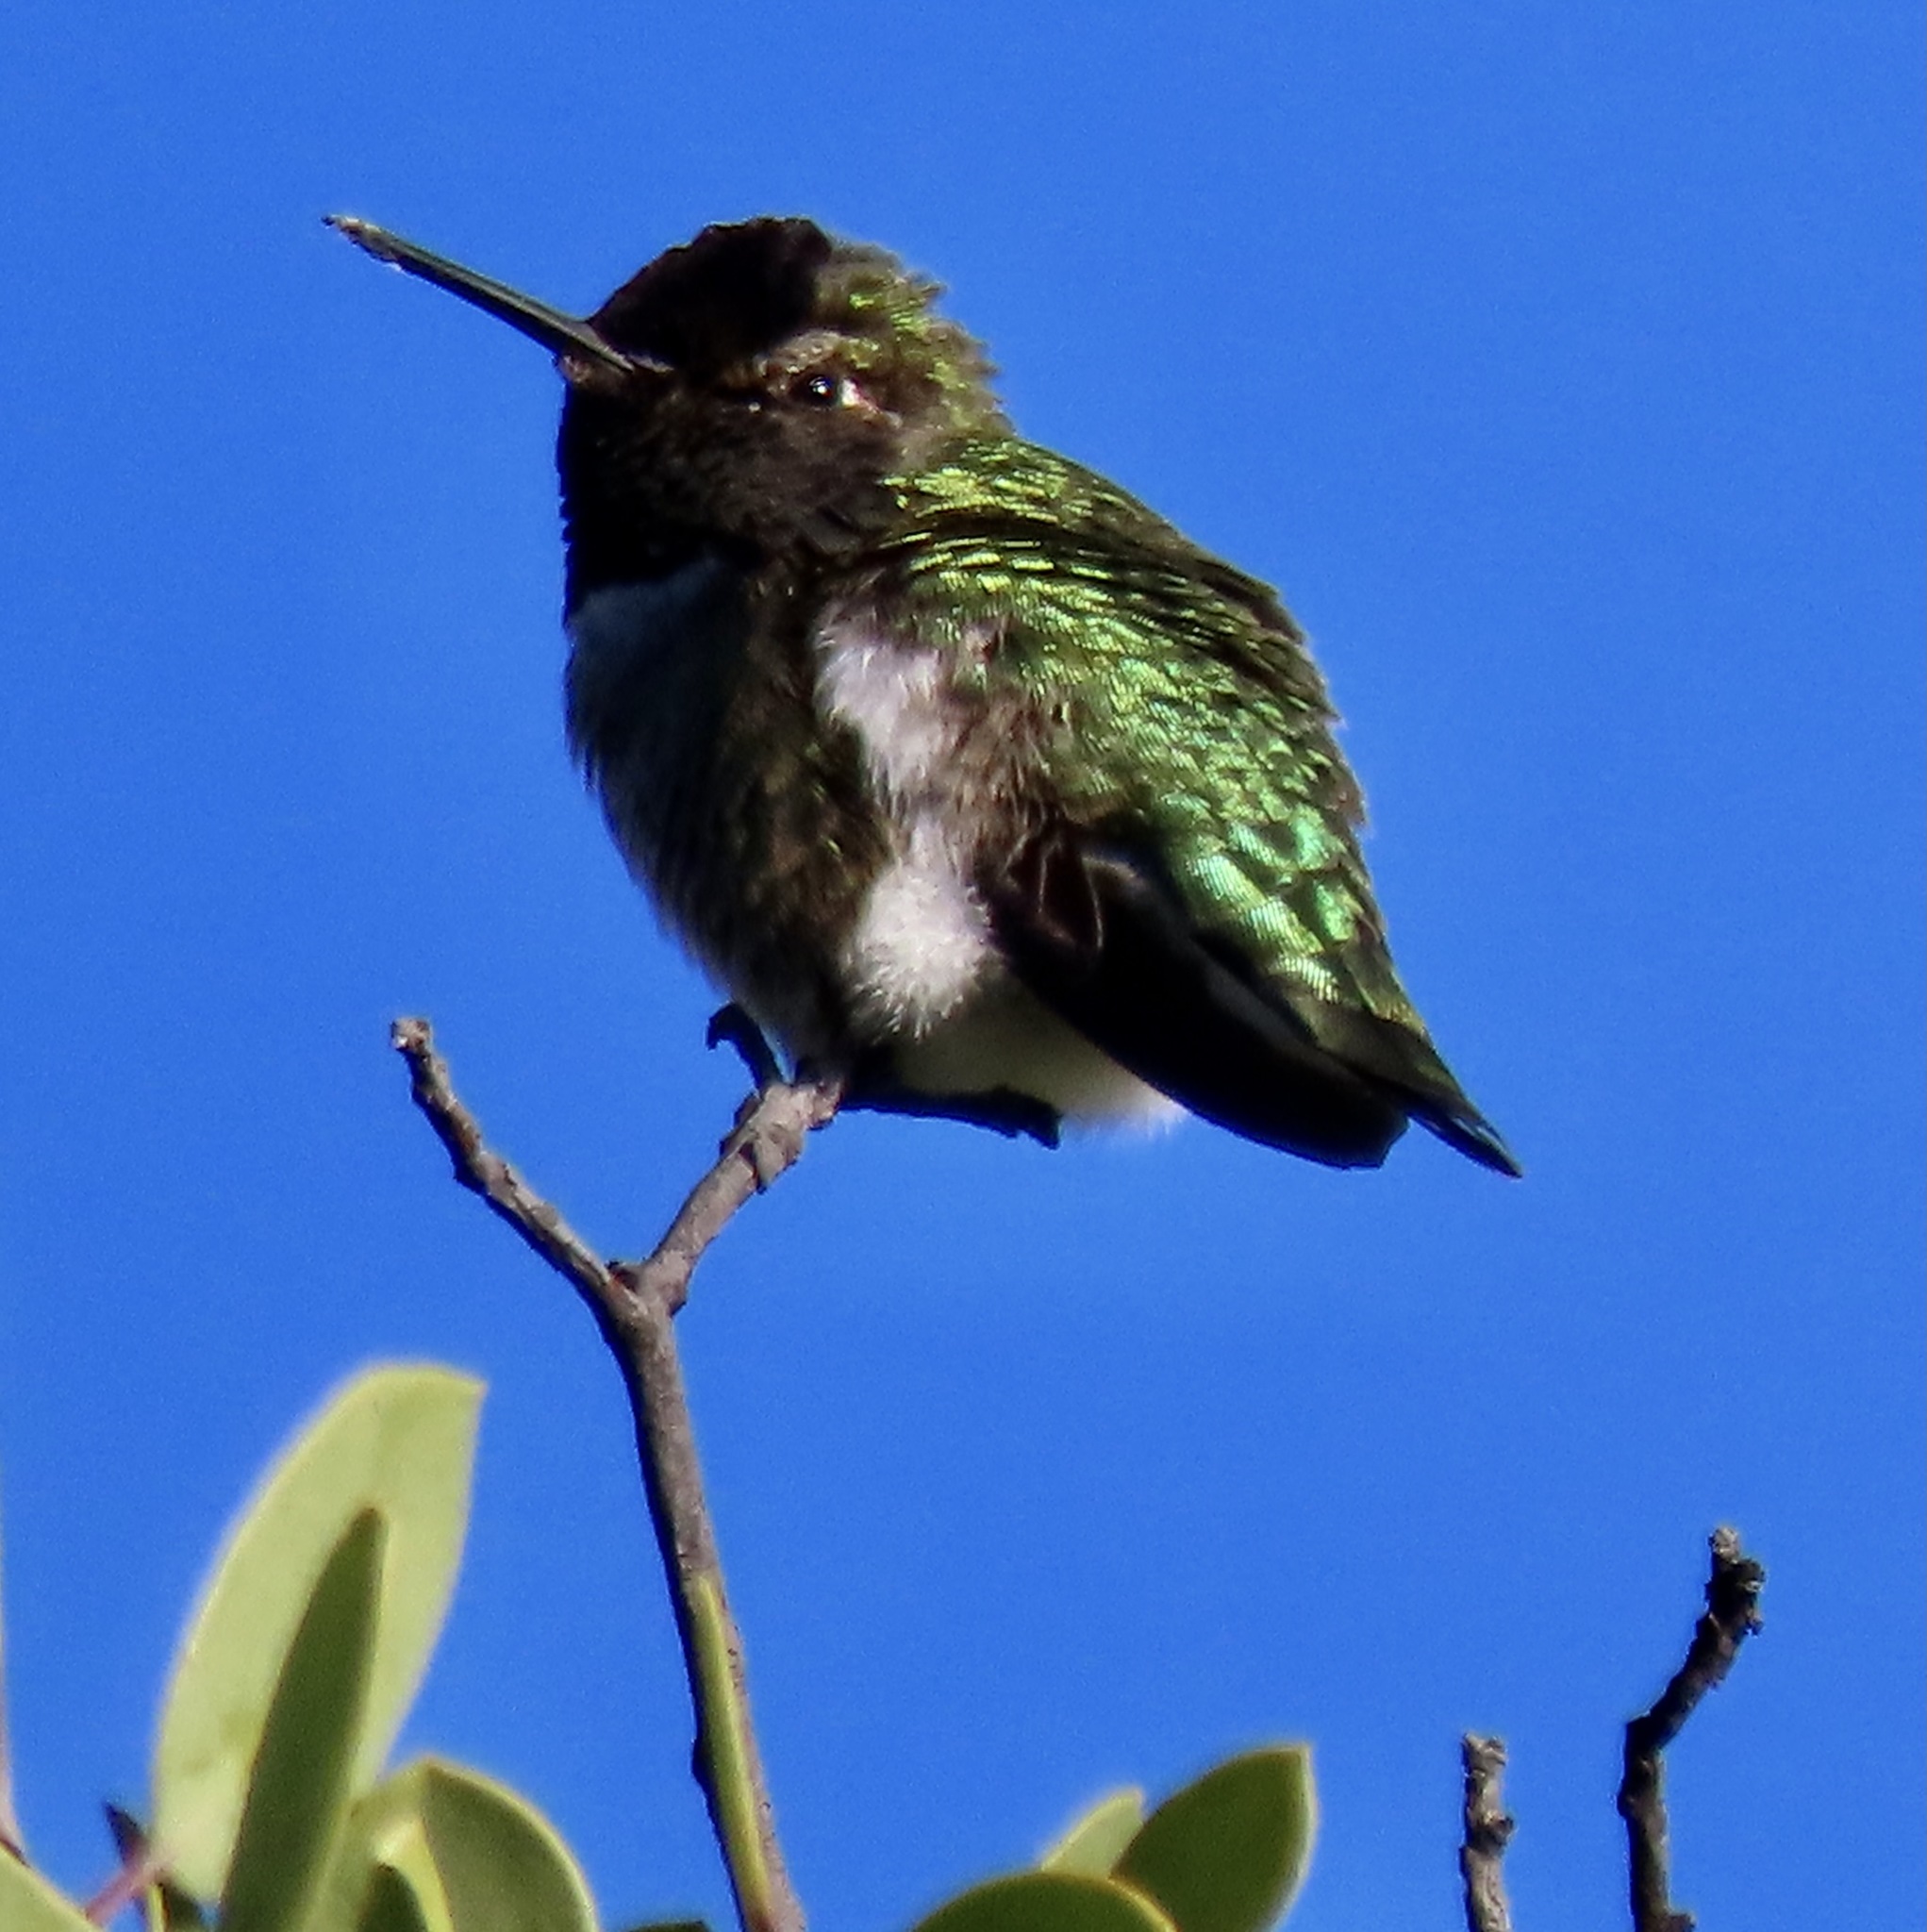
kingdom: Animalia
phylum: Chordata
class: Aves
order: Apodiformes
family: Trochilidae
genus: Calypte
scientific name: Calypte anna
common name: Anna's hummingbird
